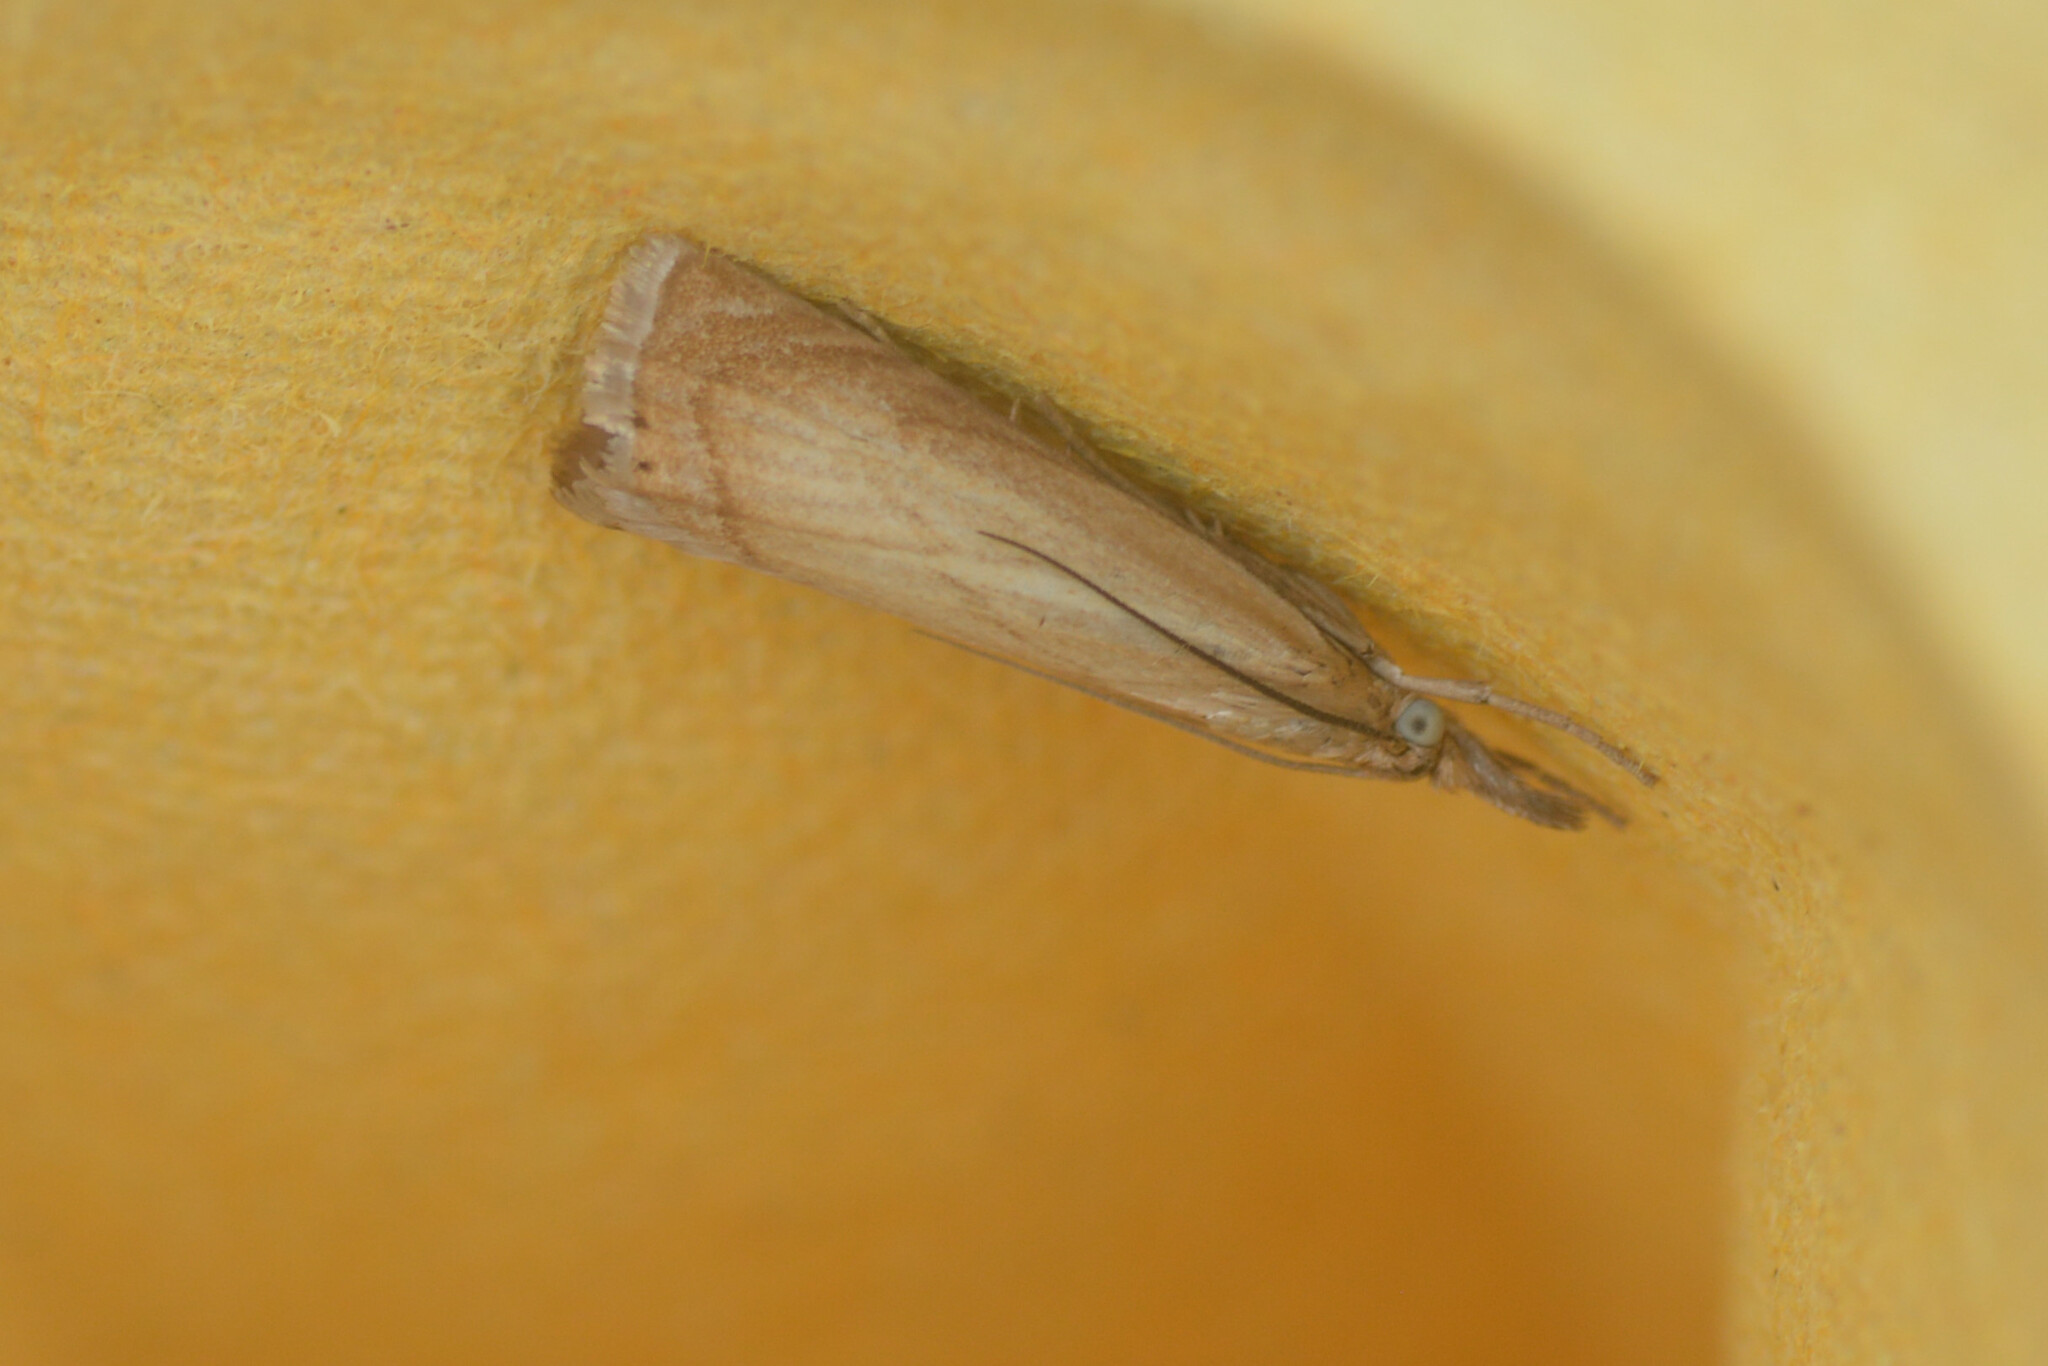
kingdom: Animalia
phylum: Arthropoda
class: Insecta
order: Lepidoptera
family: Crambidae
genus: Chrysoteuchia
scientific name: Chrysoteuchia culmella
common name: Garden grass-veneer
